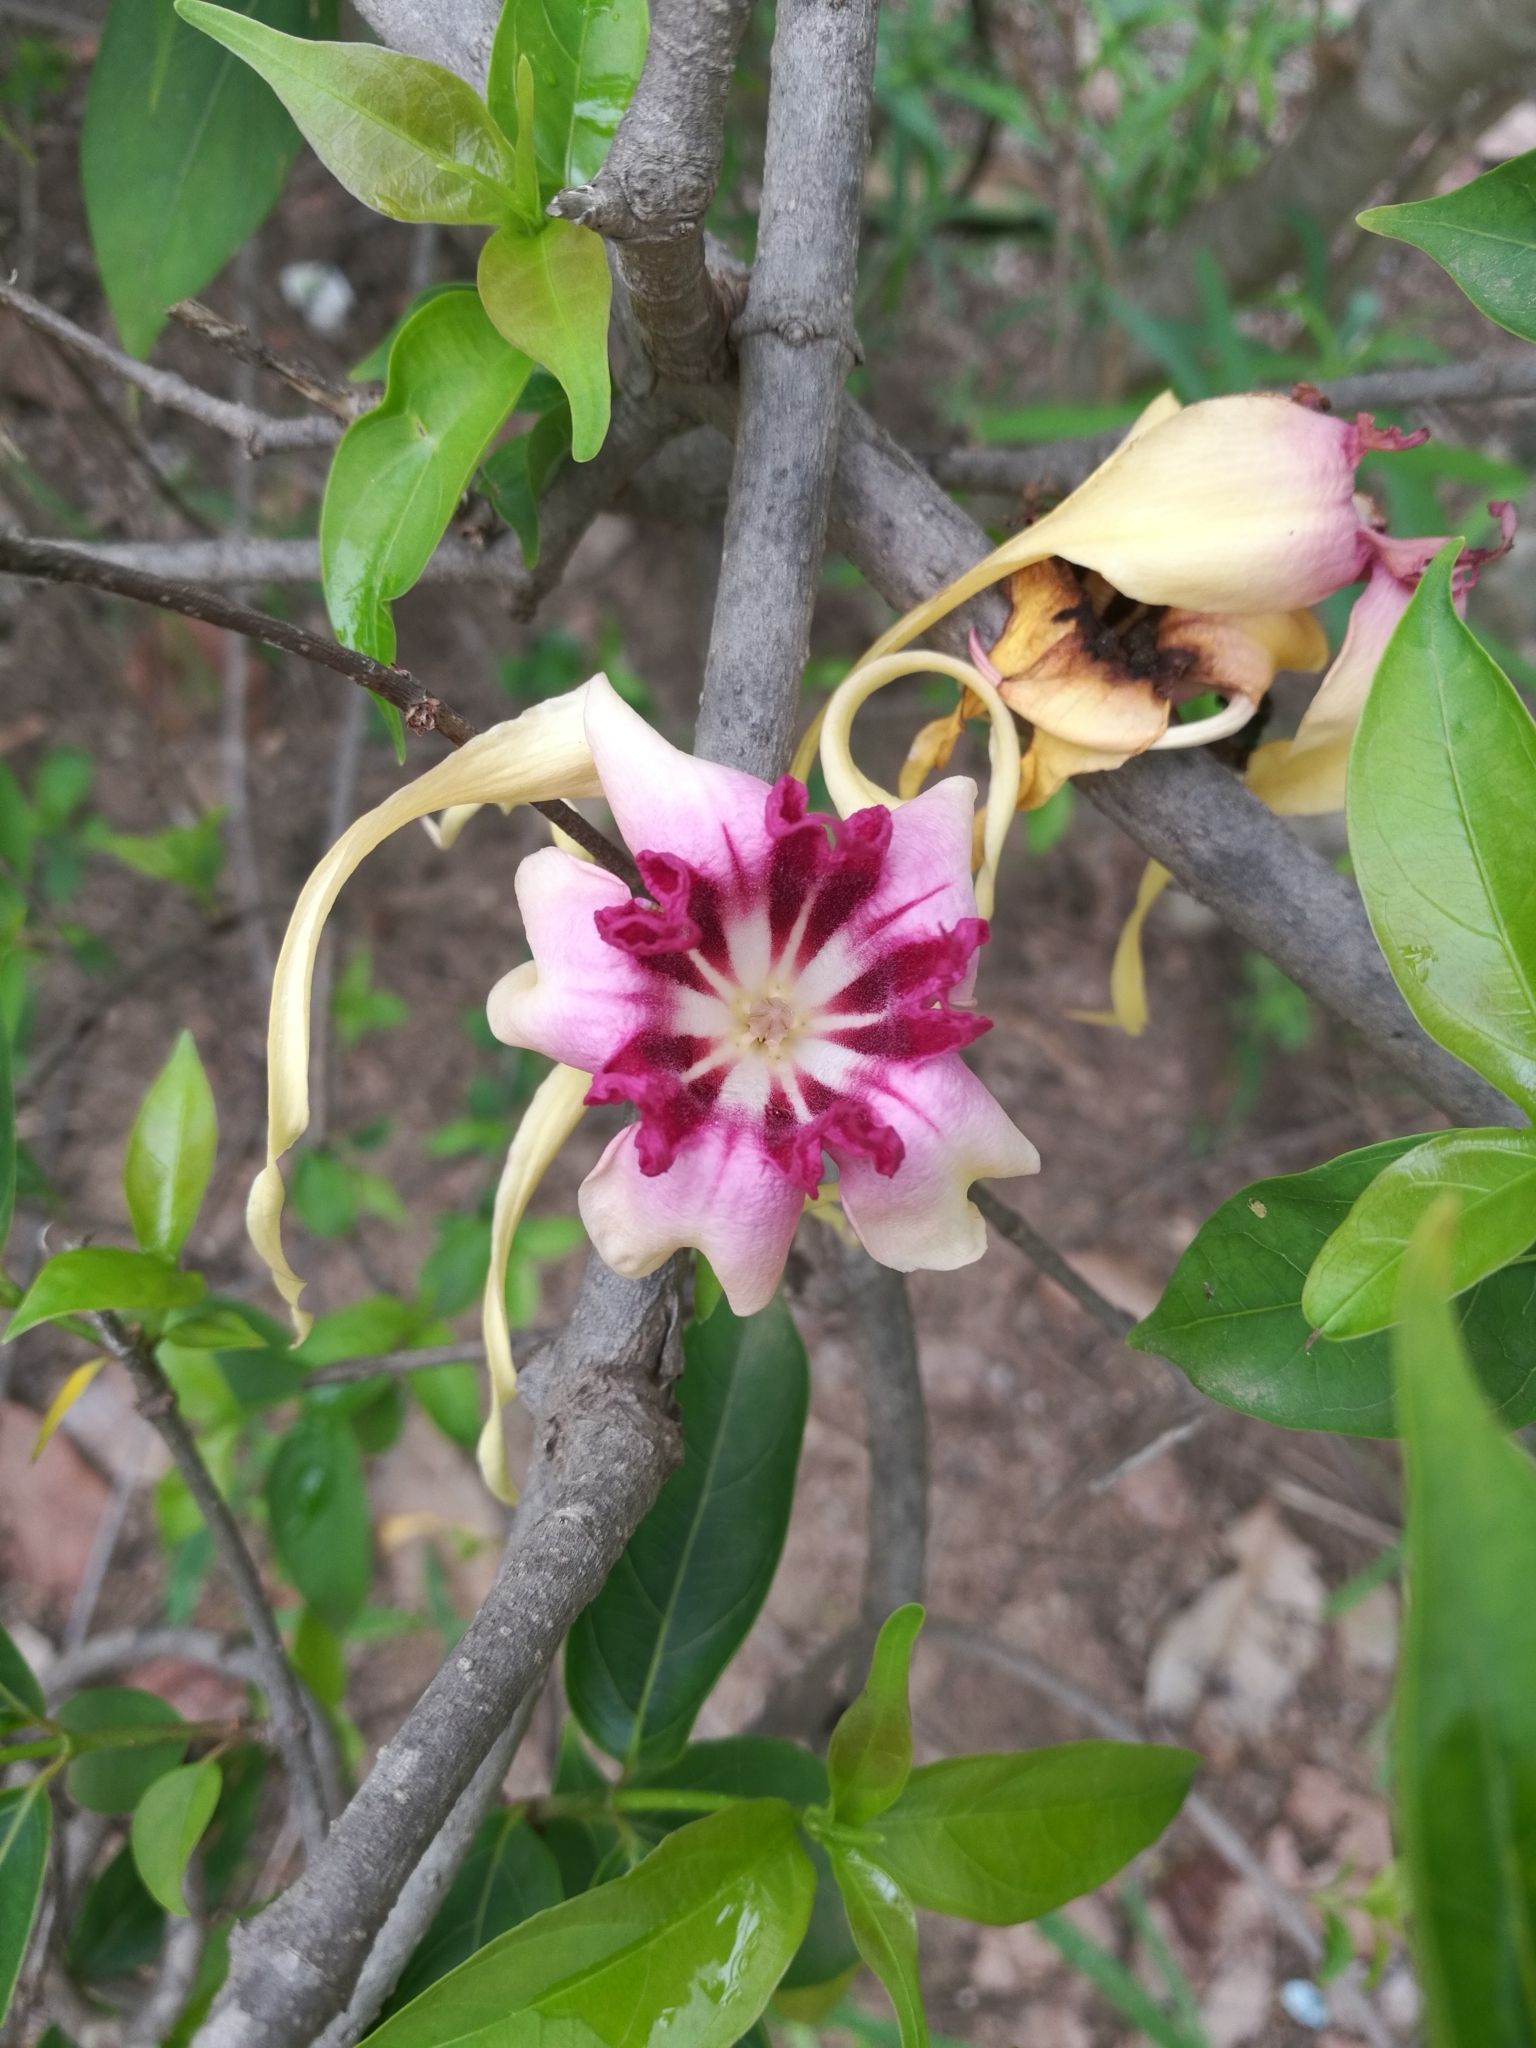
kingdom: Plantae
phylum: Tracheophyta
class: Magnoliopsida
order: Gentianales
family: Apocynaceae
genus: Strophanthus
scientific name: Strophanthus sarmentosus
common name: Poison arrowvine
